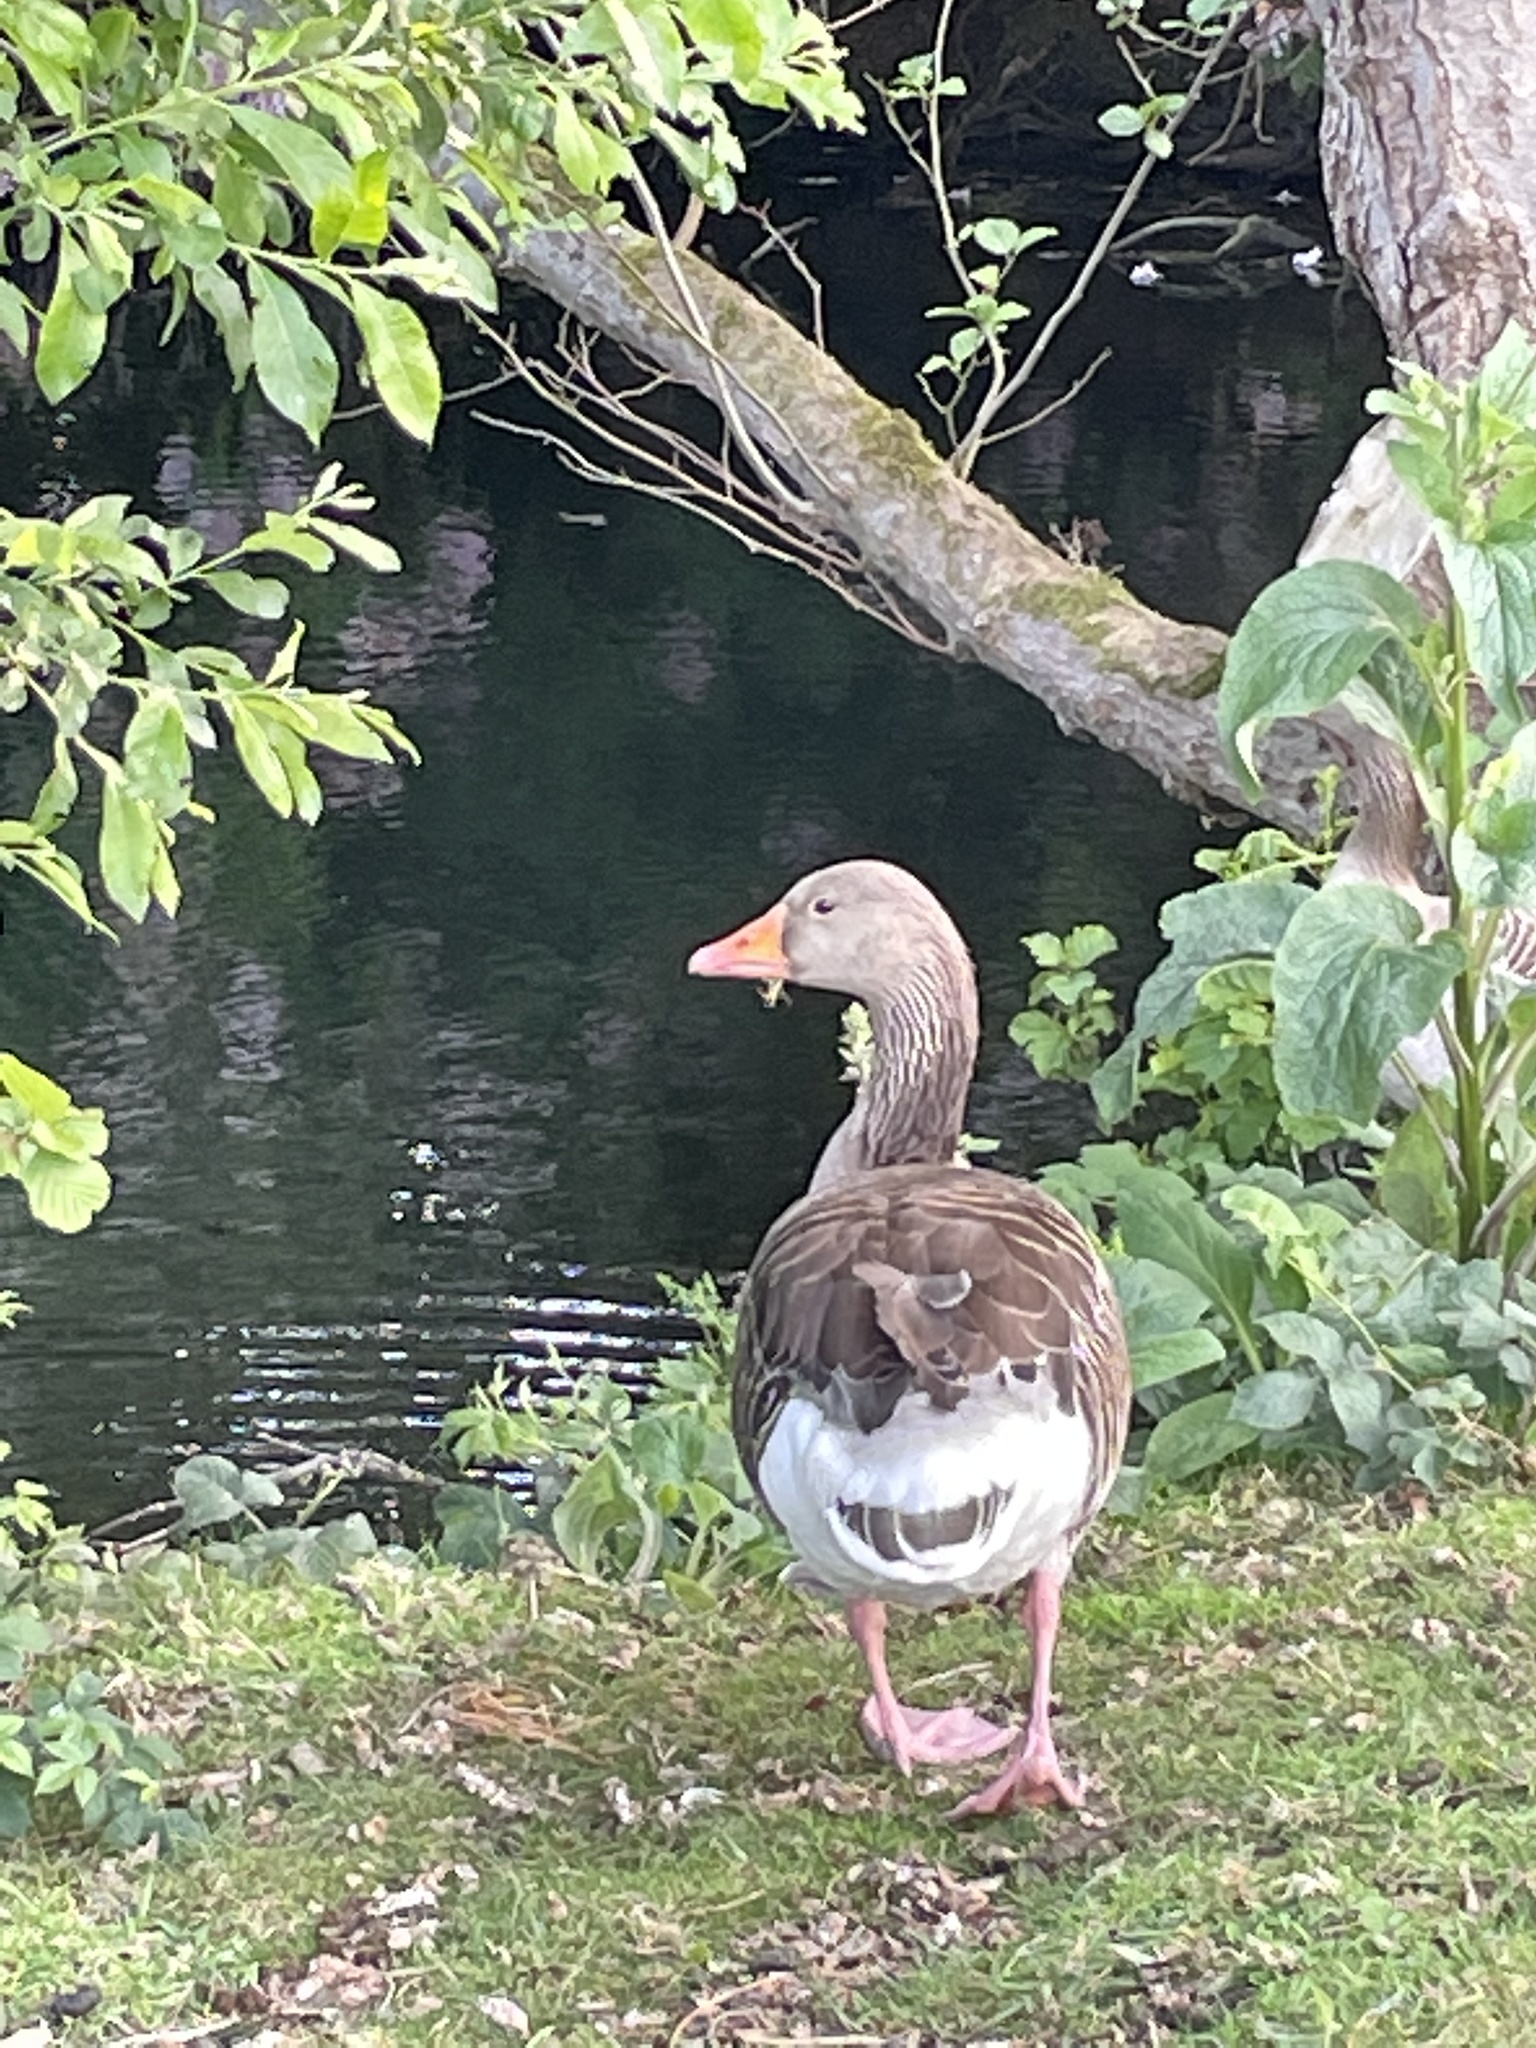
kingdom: Animalia
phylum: Chordata
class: Aves
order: Anseriformes
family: Anatidae
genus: Anser
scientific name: Anser anser
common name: Greylag goose
